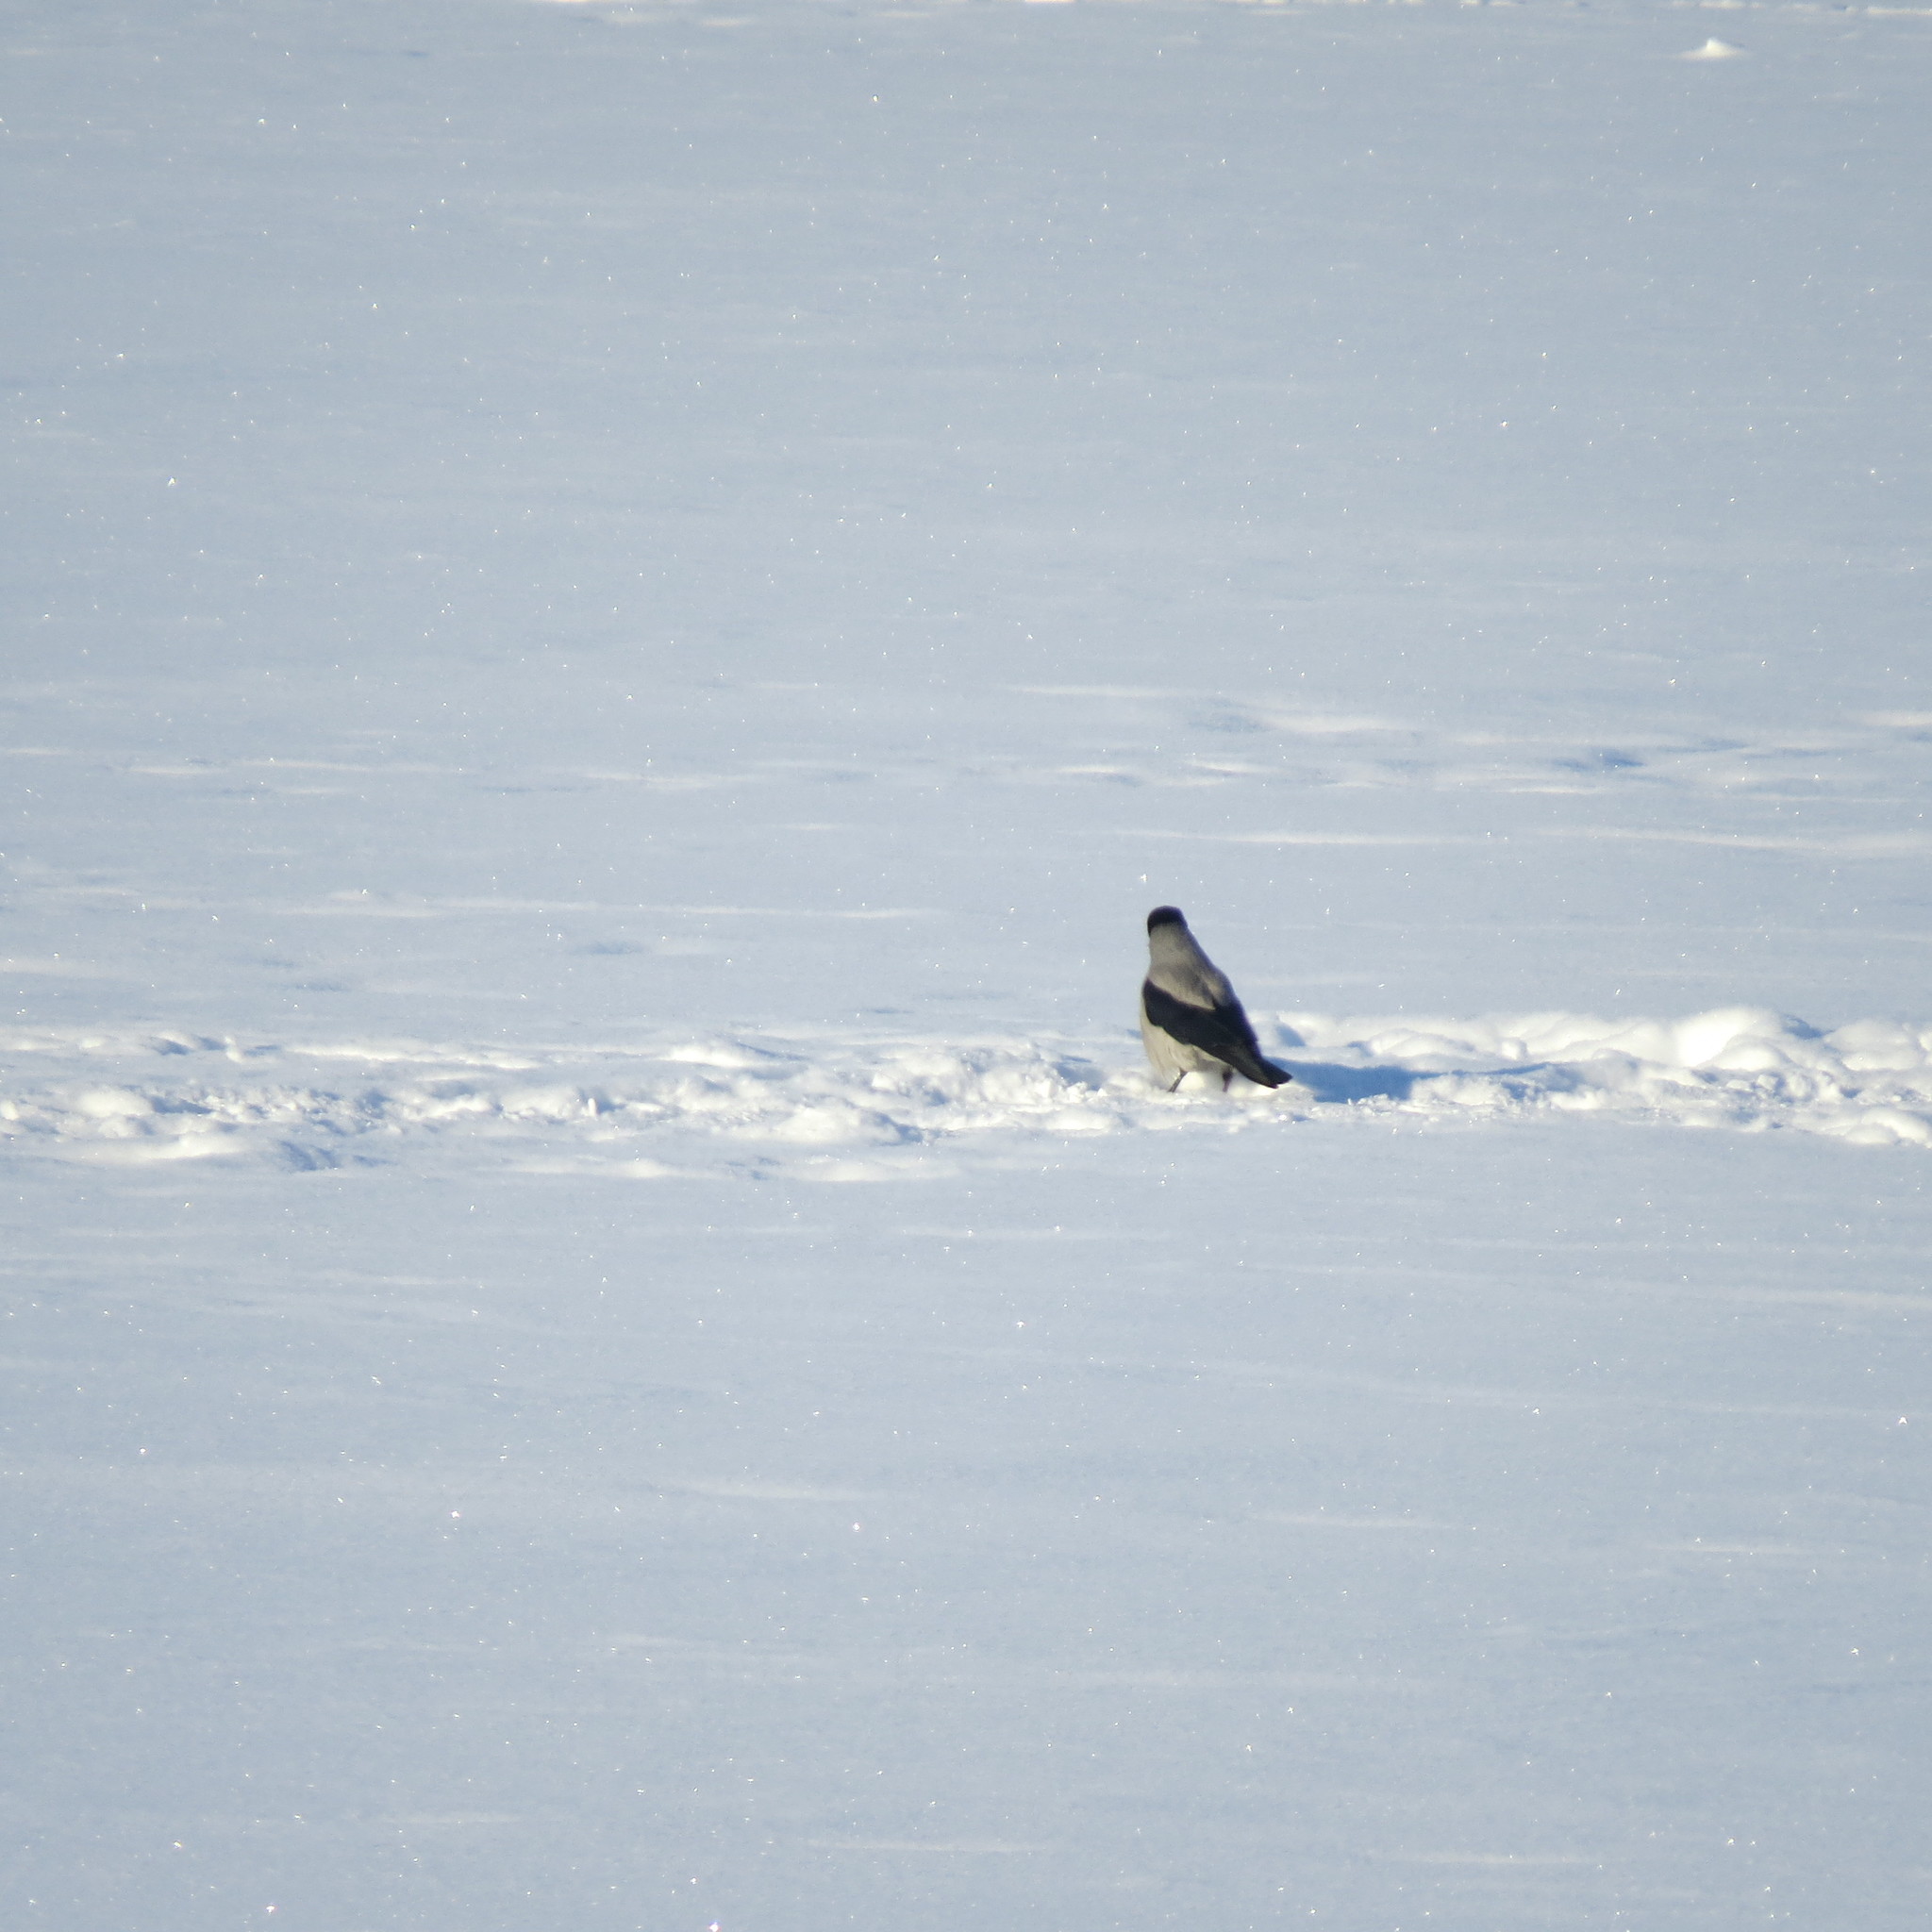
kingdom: Animalia
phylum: Chordata
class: Aves
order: Passeriformes
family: Corvidae
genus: Corvus
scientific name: Corvus cornix
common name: Hooded crow
